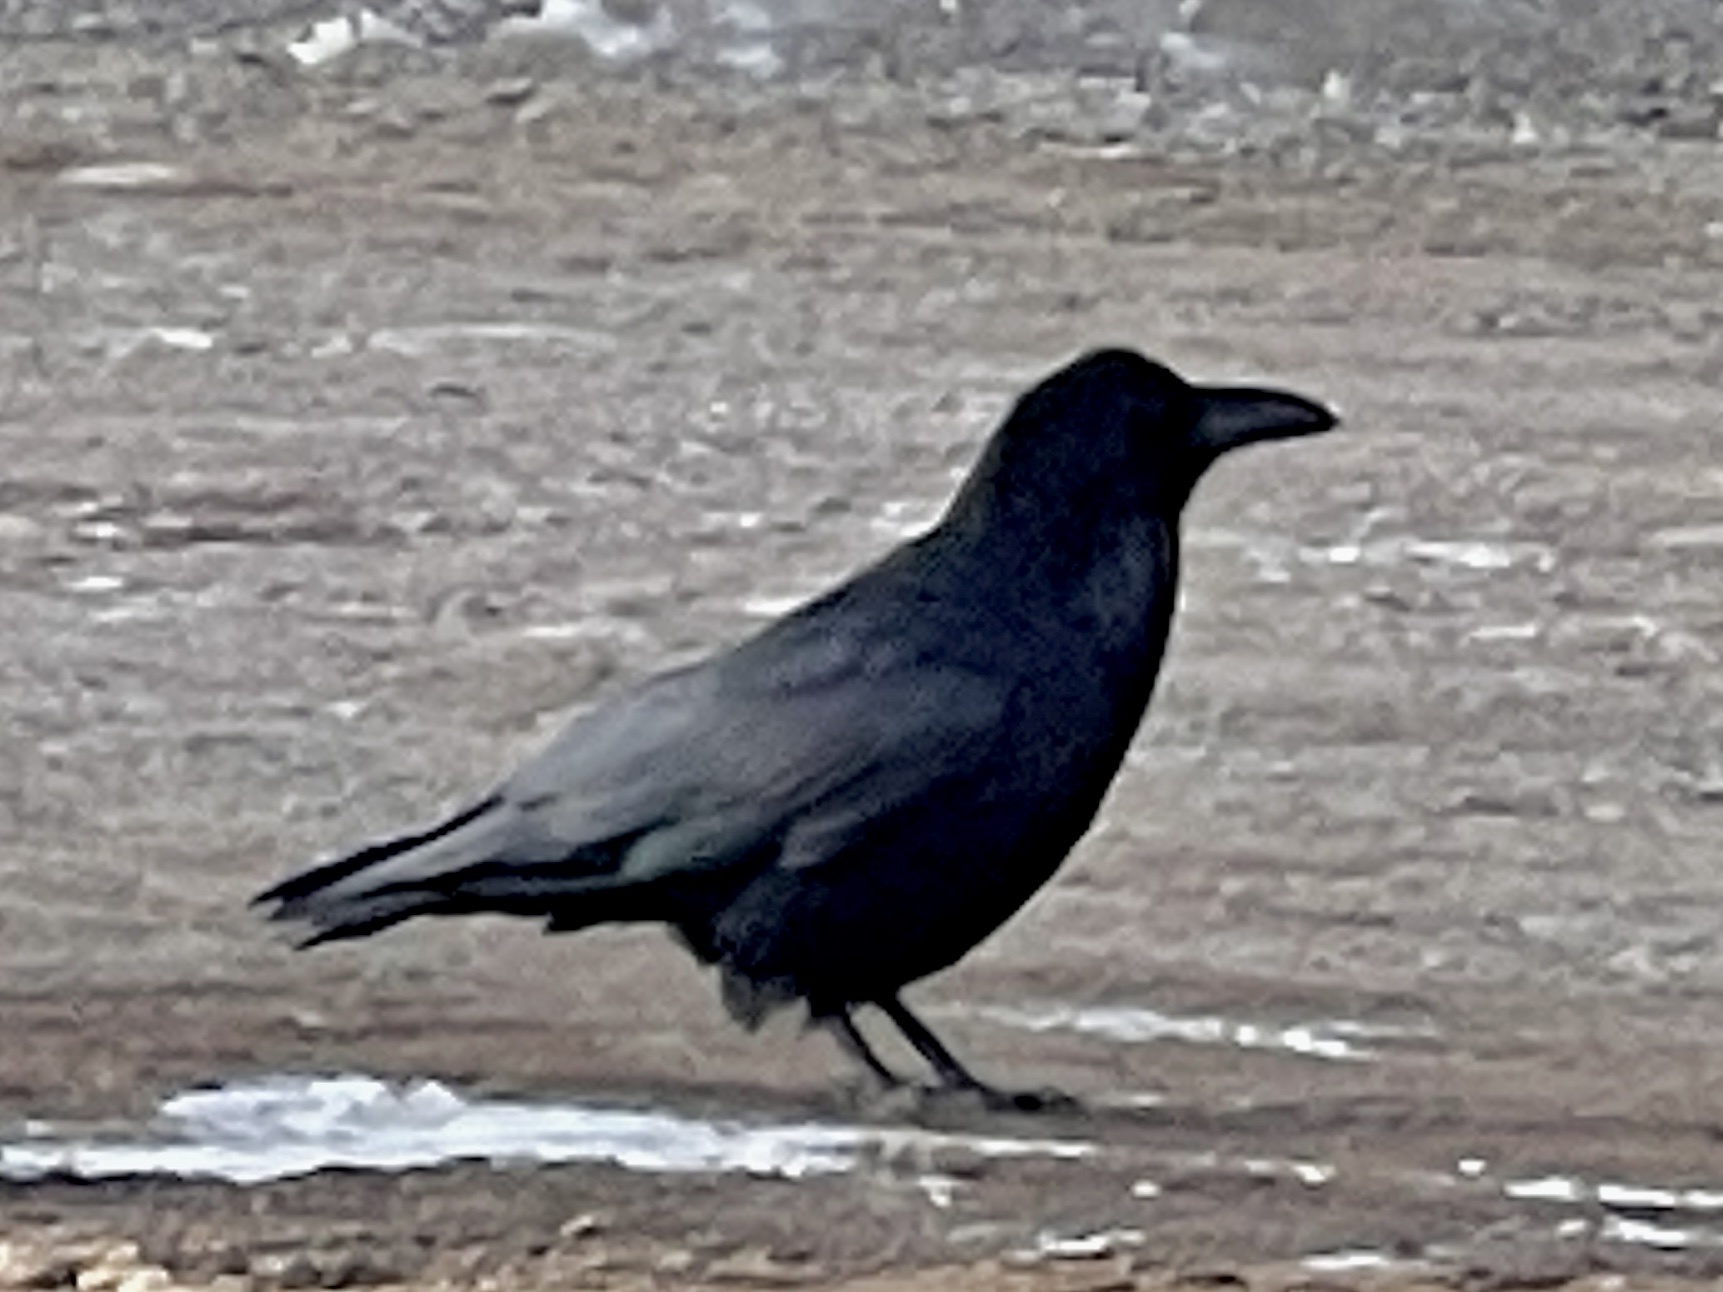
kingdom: Animalia
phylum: Chordata
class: Aves
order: Passeriformes
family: Corvidae
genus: Corvus
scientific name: Corvus corax
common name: Common raven
